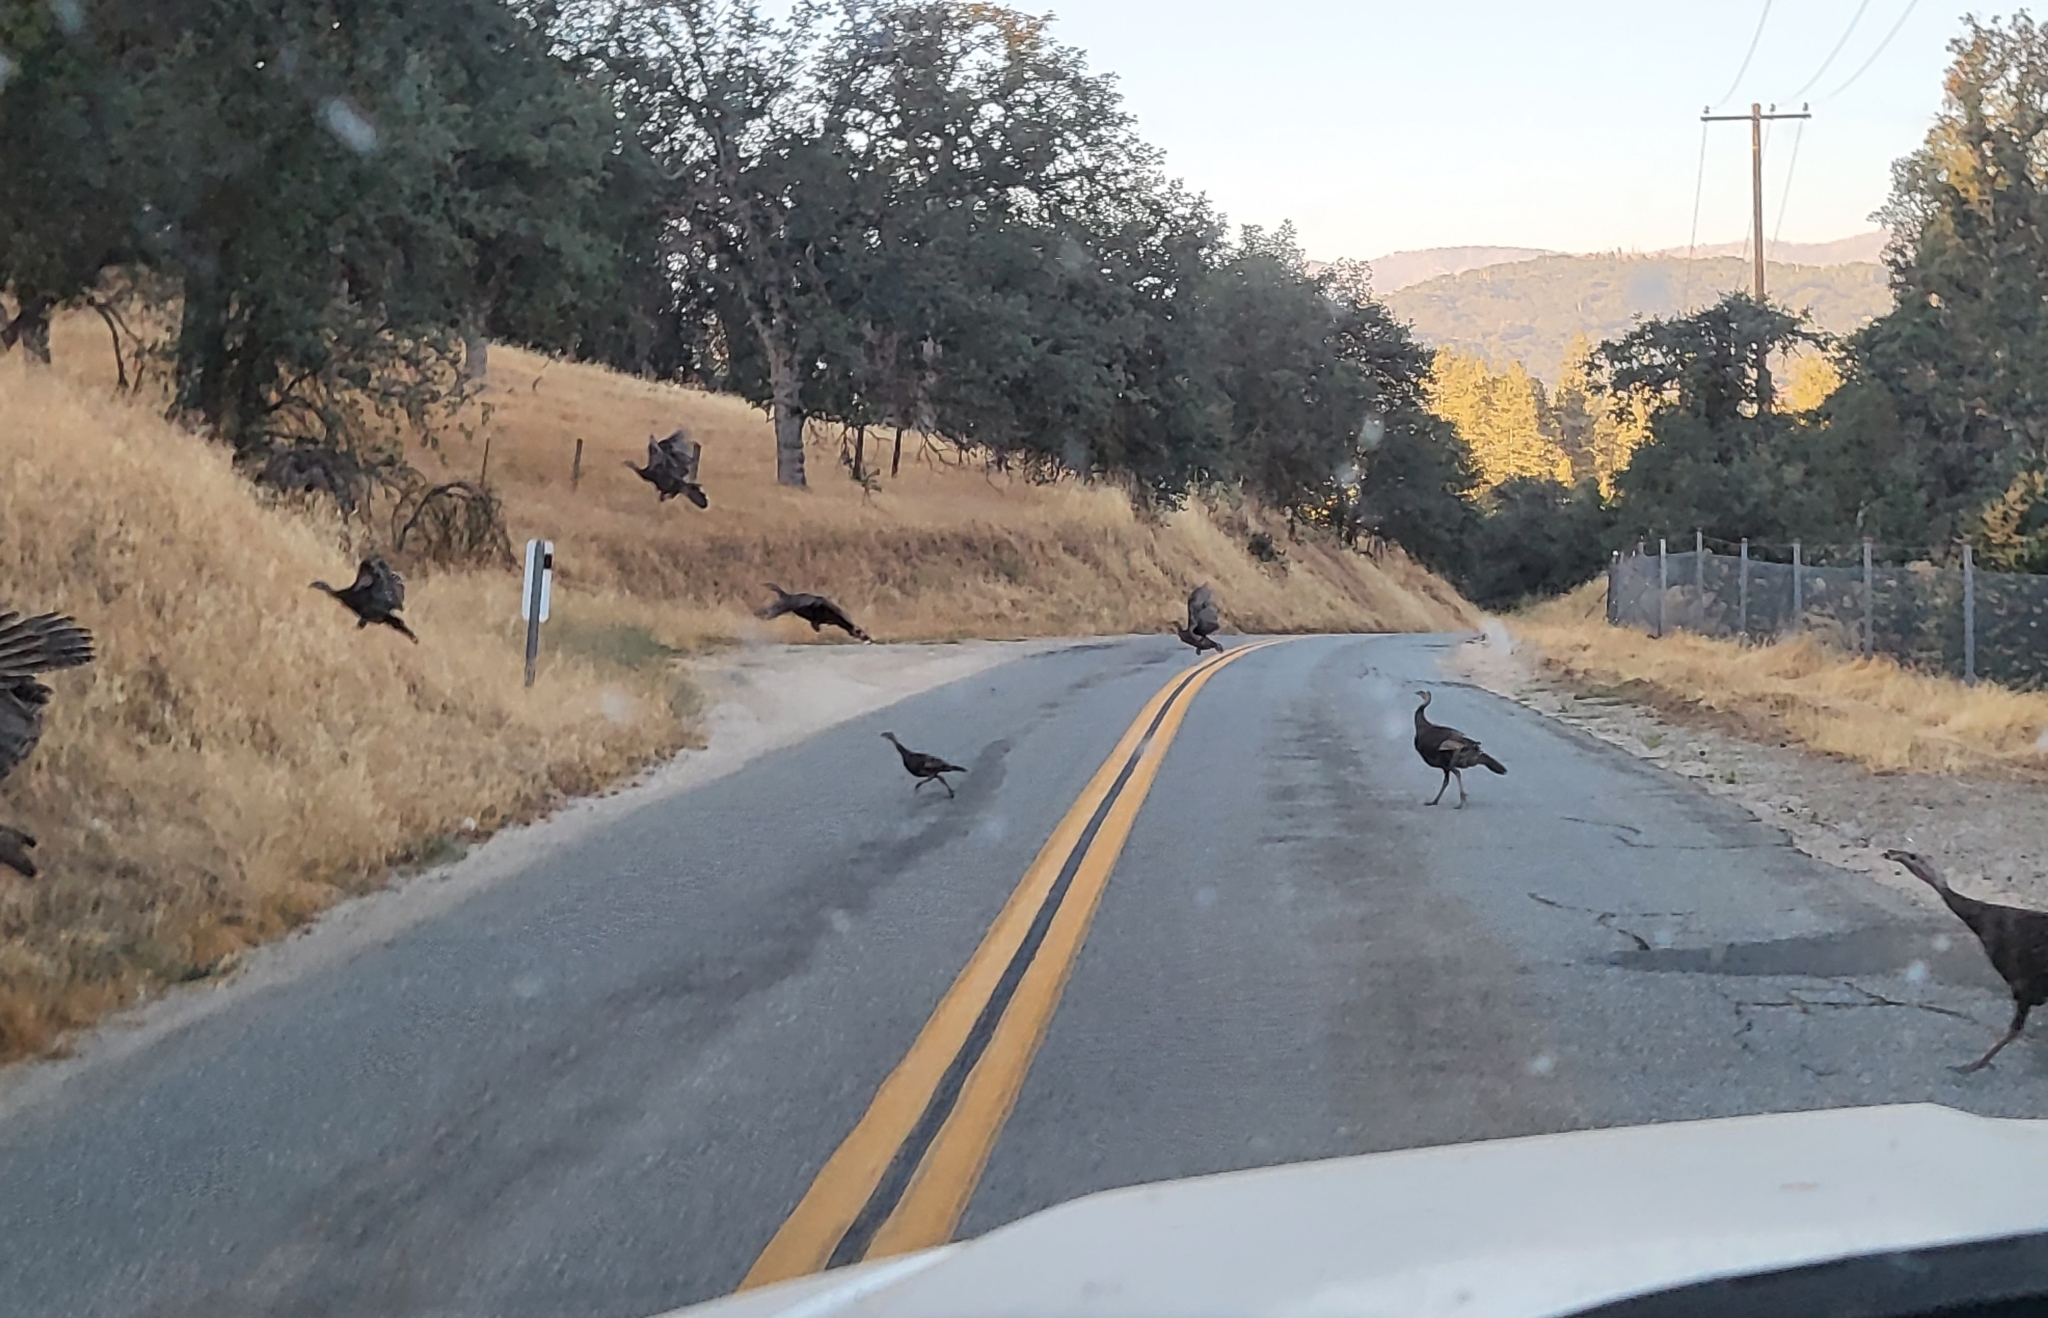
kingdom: Animalia
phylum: Chordata
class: Aves
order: Galliformes
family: Phasianidae
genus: Meleagris
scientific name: Meleagris gallopavo
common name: Wild turkey
